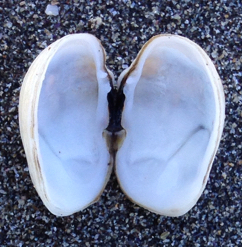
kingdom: Animalia
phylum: Mollusca
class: Bivalvia
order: Venerida
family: Veneridae
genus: Petricola
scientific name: Petricola carditoides
